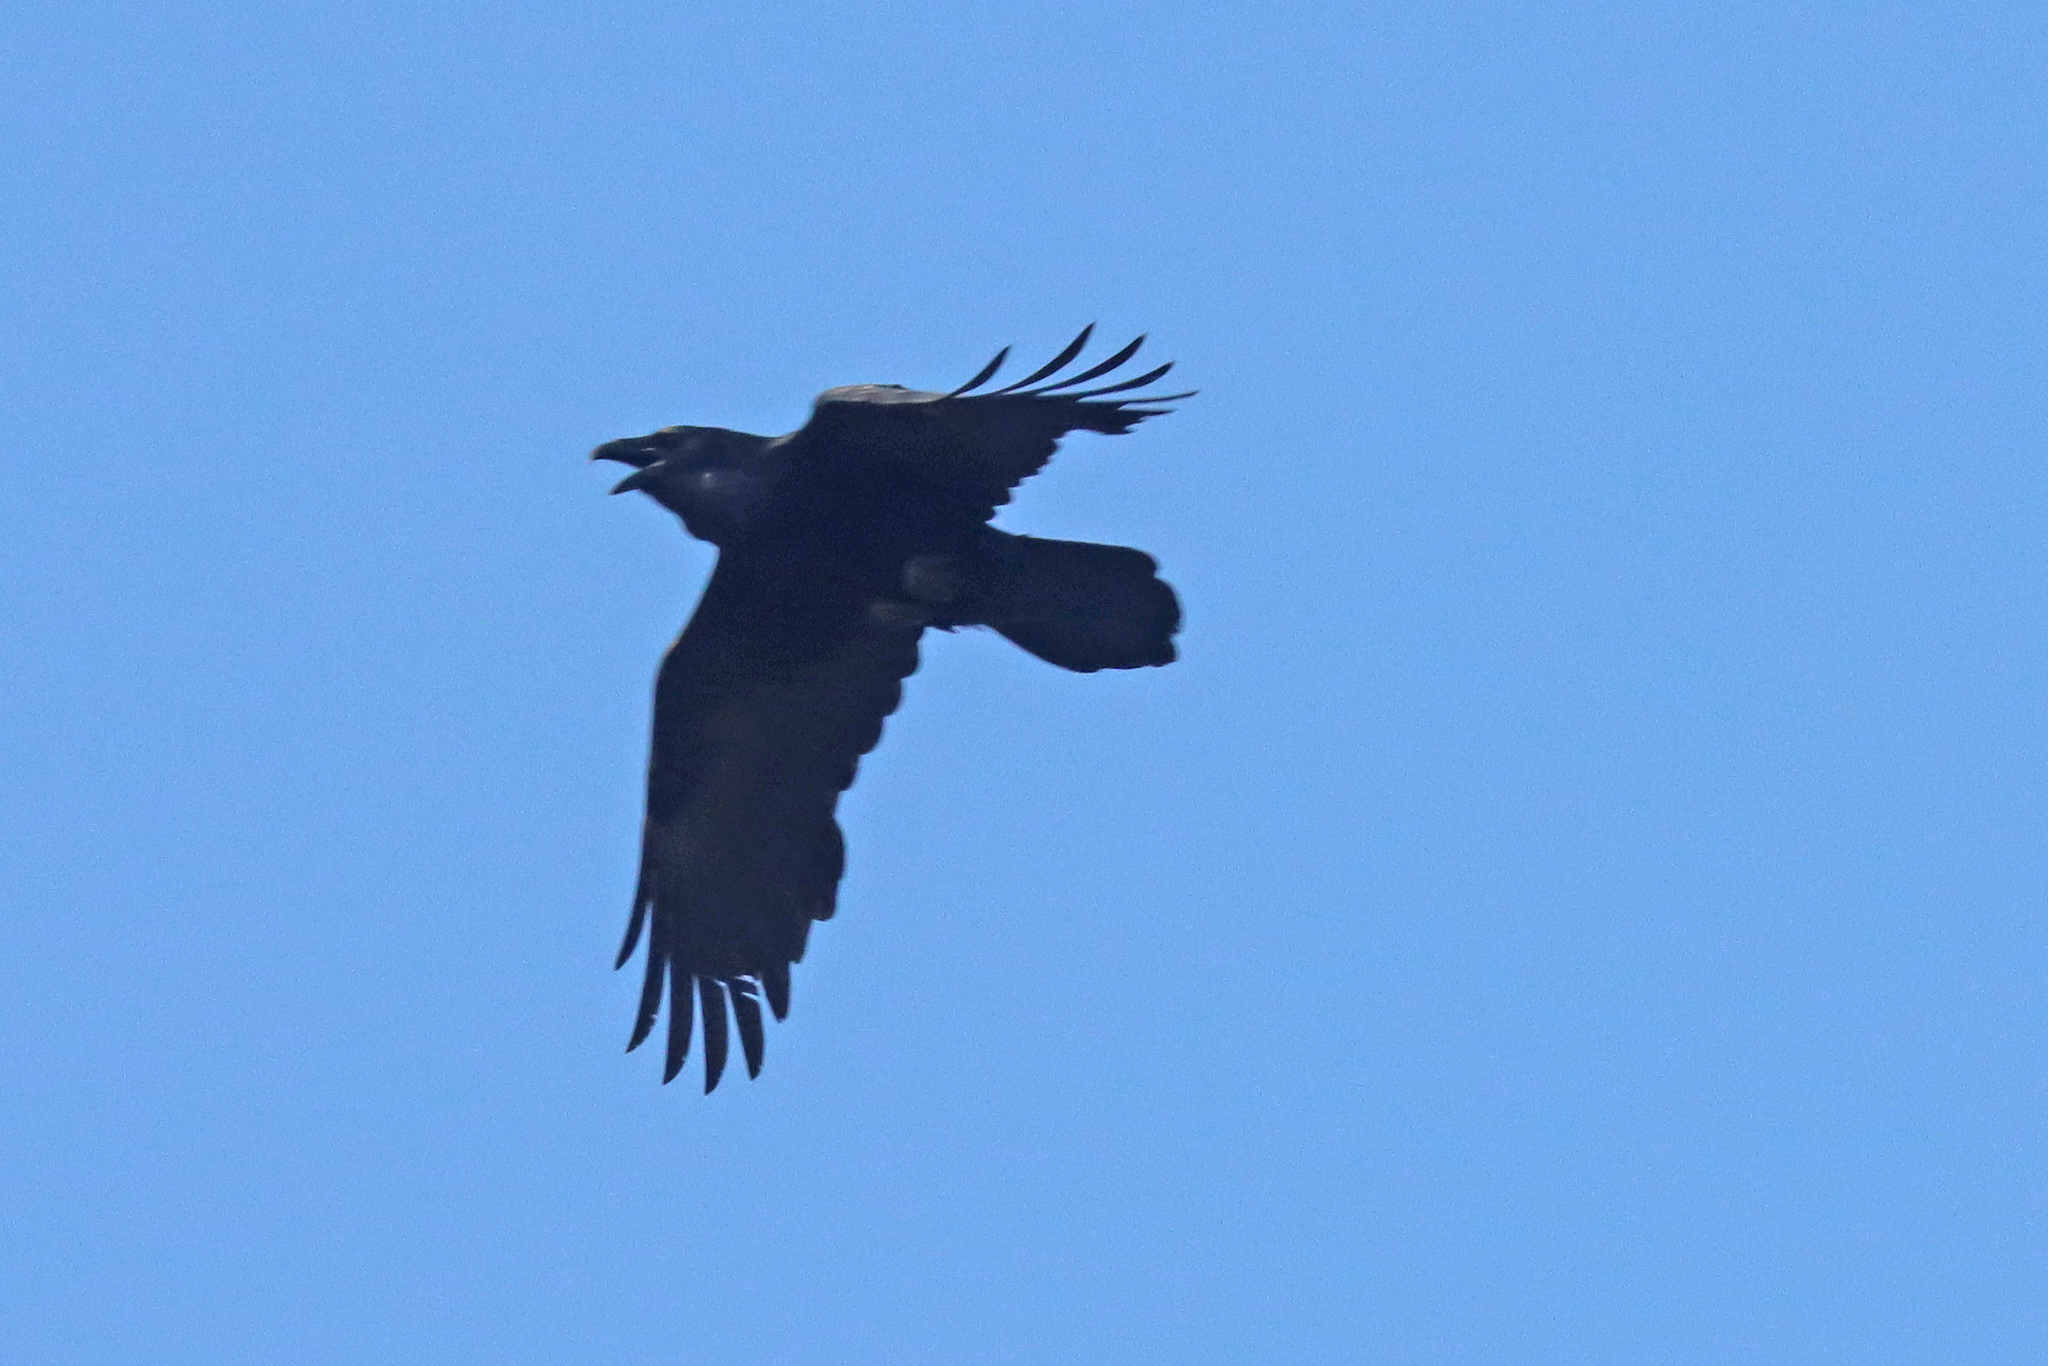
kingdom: Animalia
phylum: Chordata
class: Aves
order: Passeriformes
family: Corvidae
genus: Corvus
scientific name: Corvus corax
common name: Common raven
